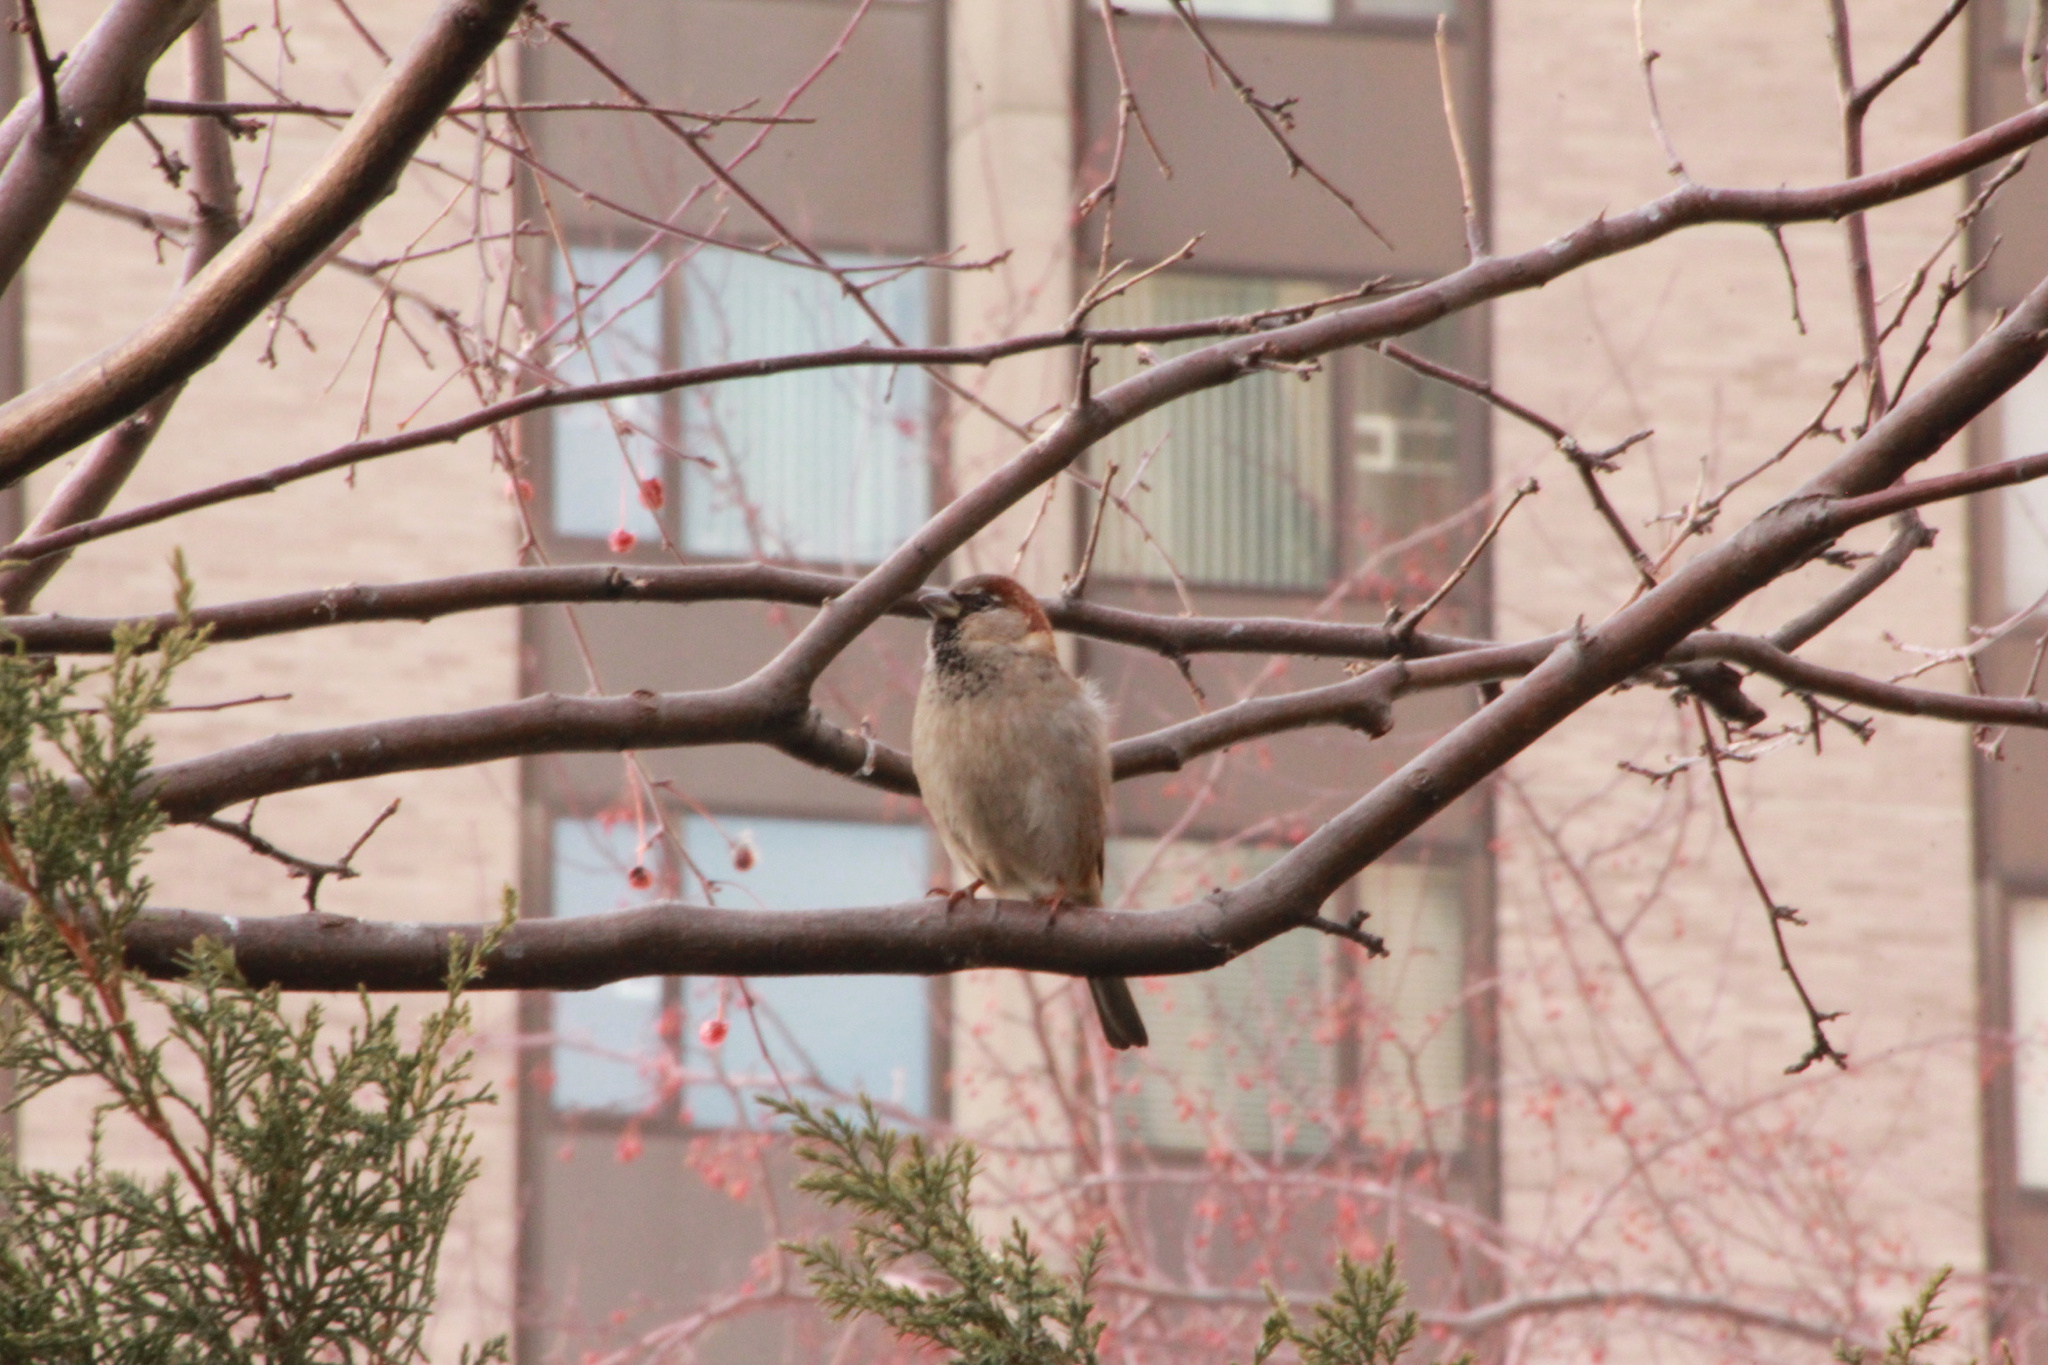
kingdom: Animalia
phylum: Chordata
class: Aves
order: Passeriformes
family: Passeridae
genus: Passer
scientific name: Passer domesticus
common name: House sparrow
